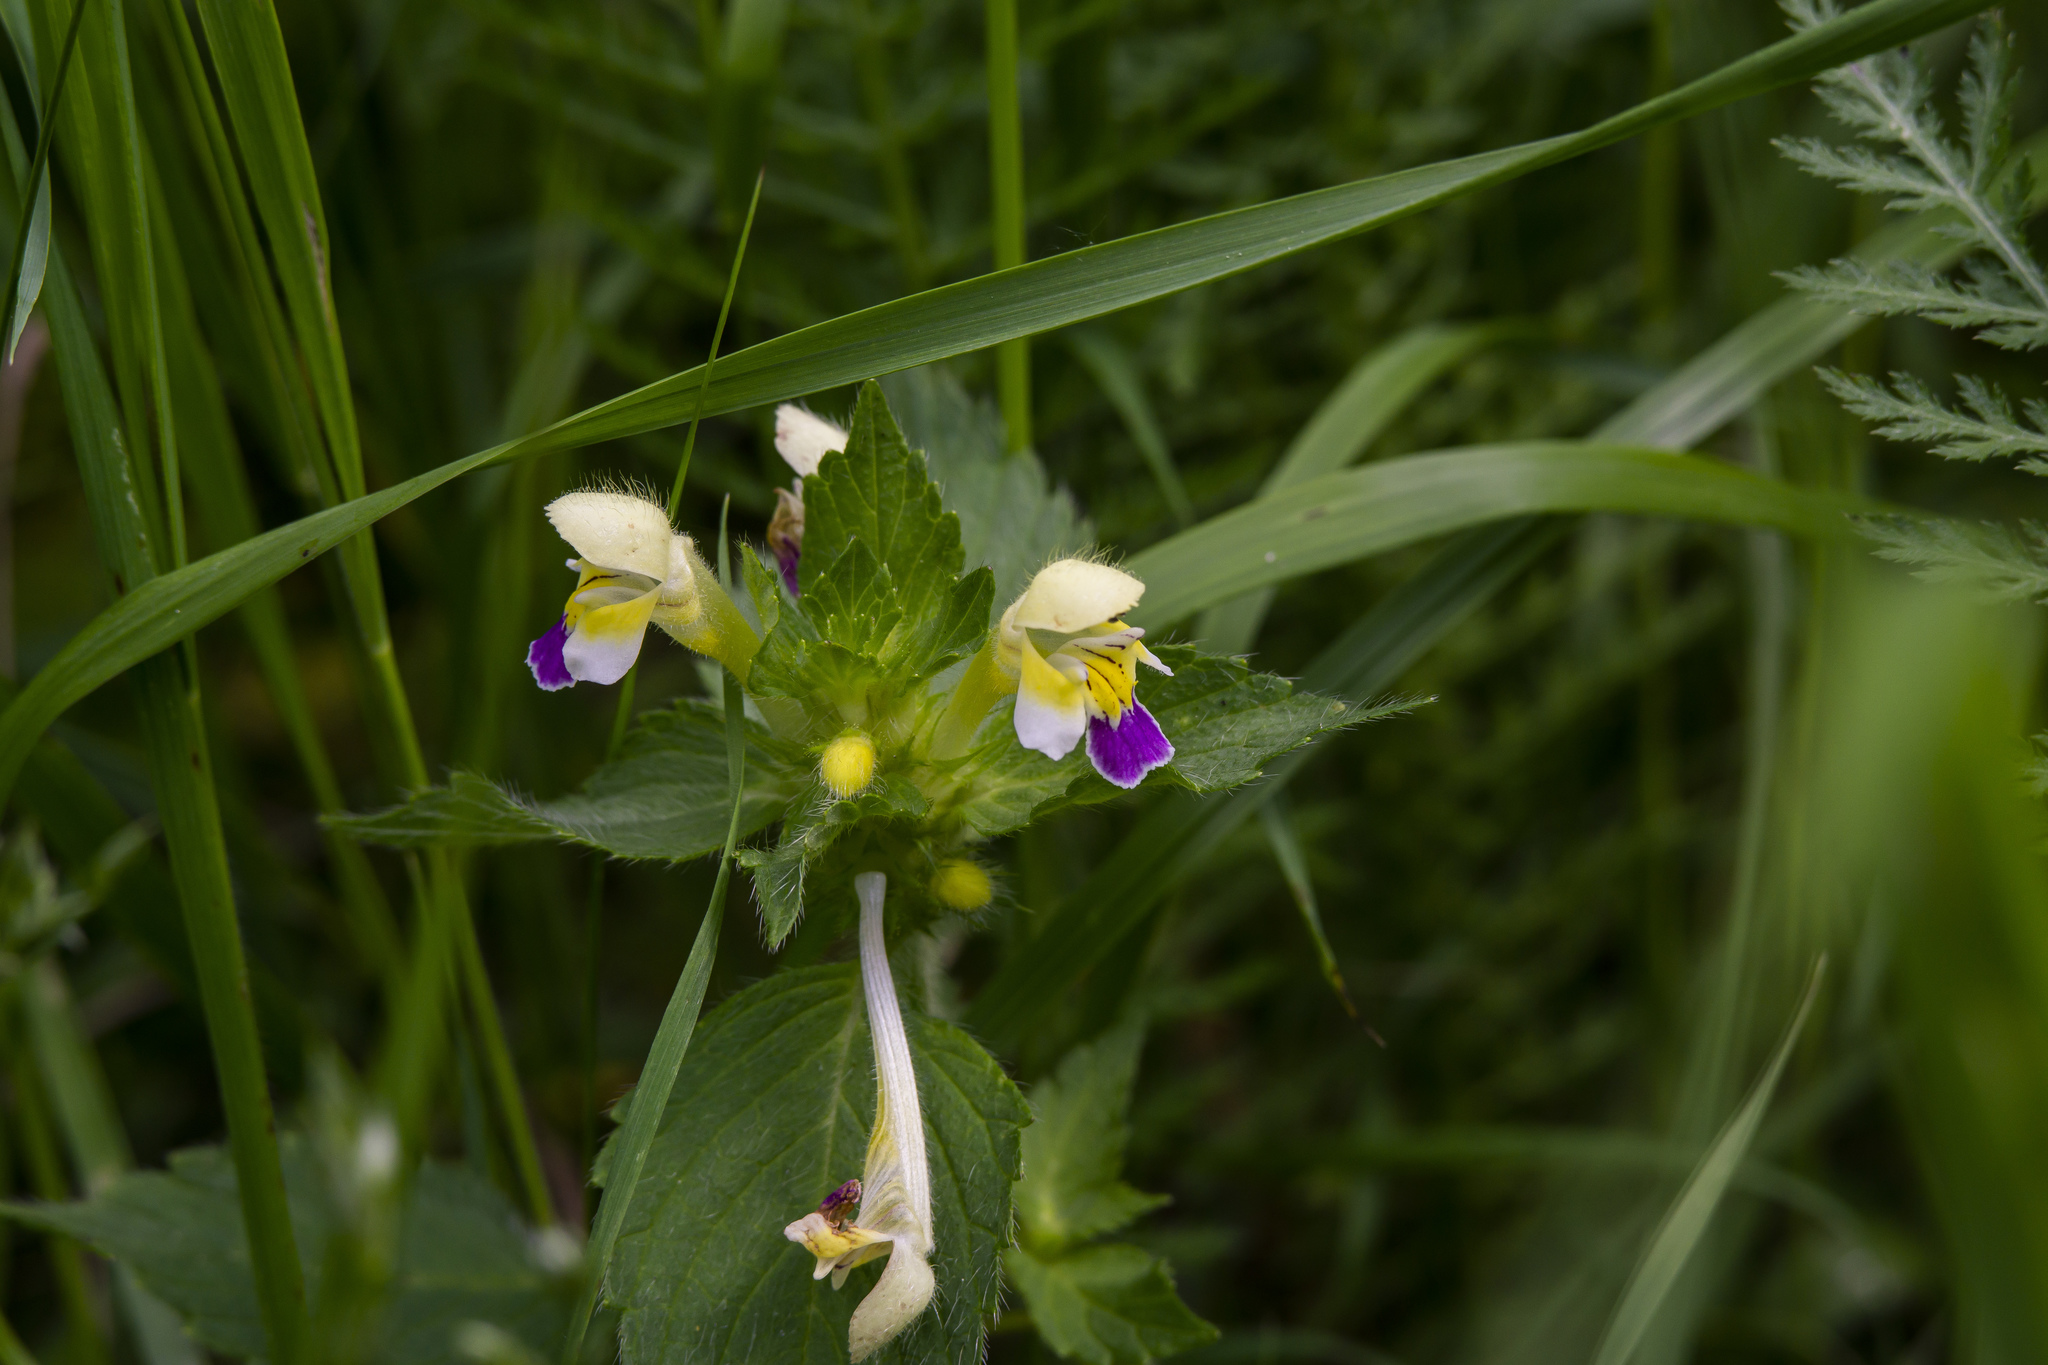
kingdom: Plantae
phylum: Tracheophyta
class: Magnoliopsida
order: Lamiales
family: Lamiaceae
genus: Galeopsis
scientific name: Galeopsis speciosa
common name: Large-flowered hemp-nettle
